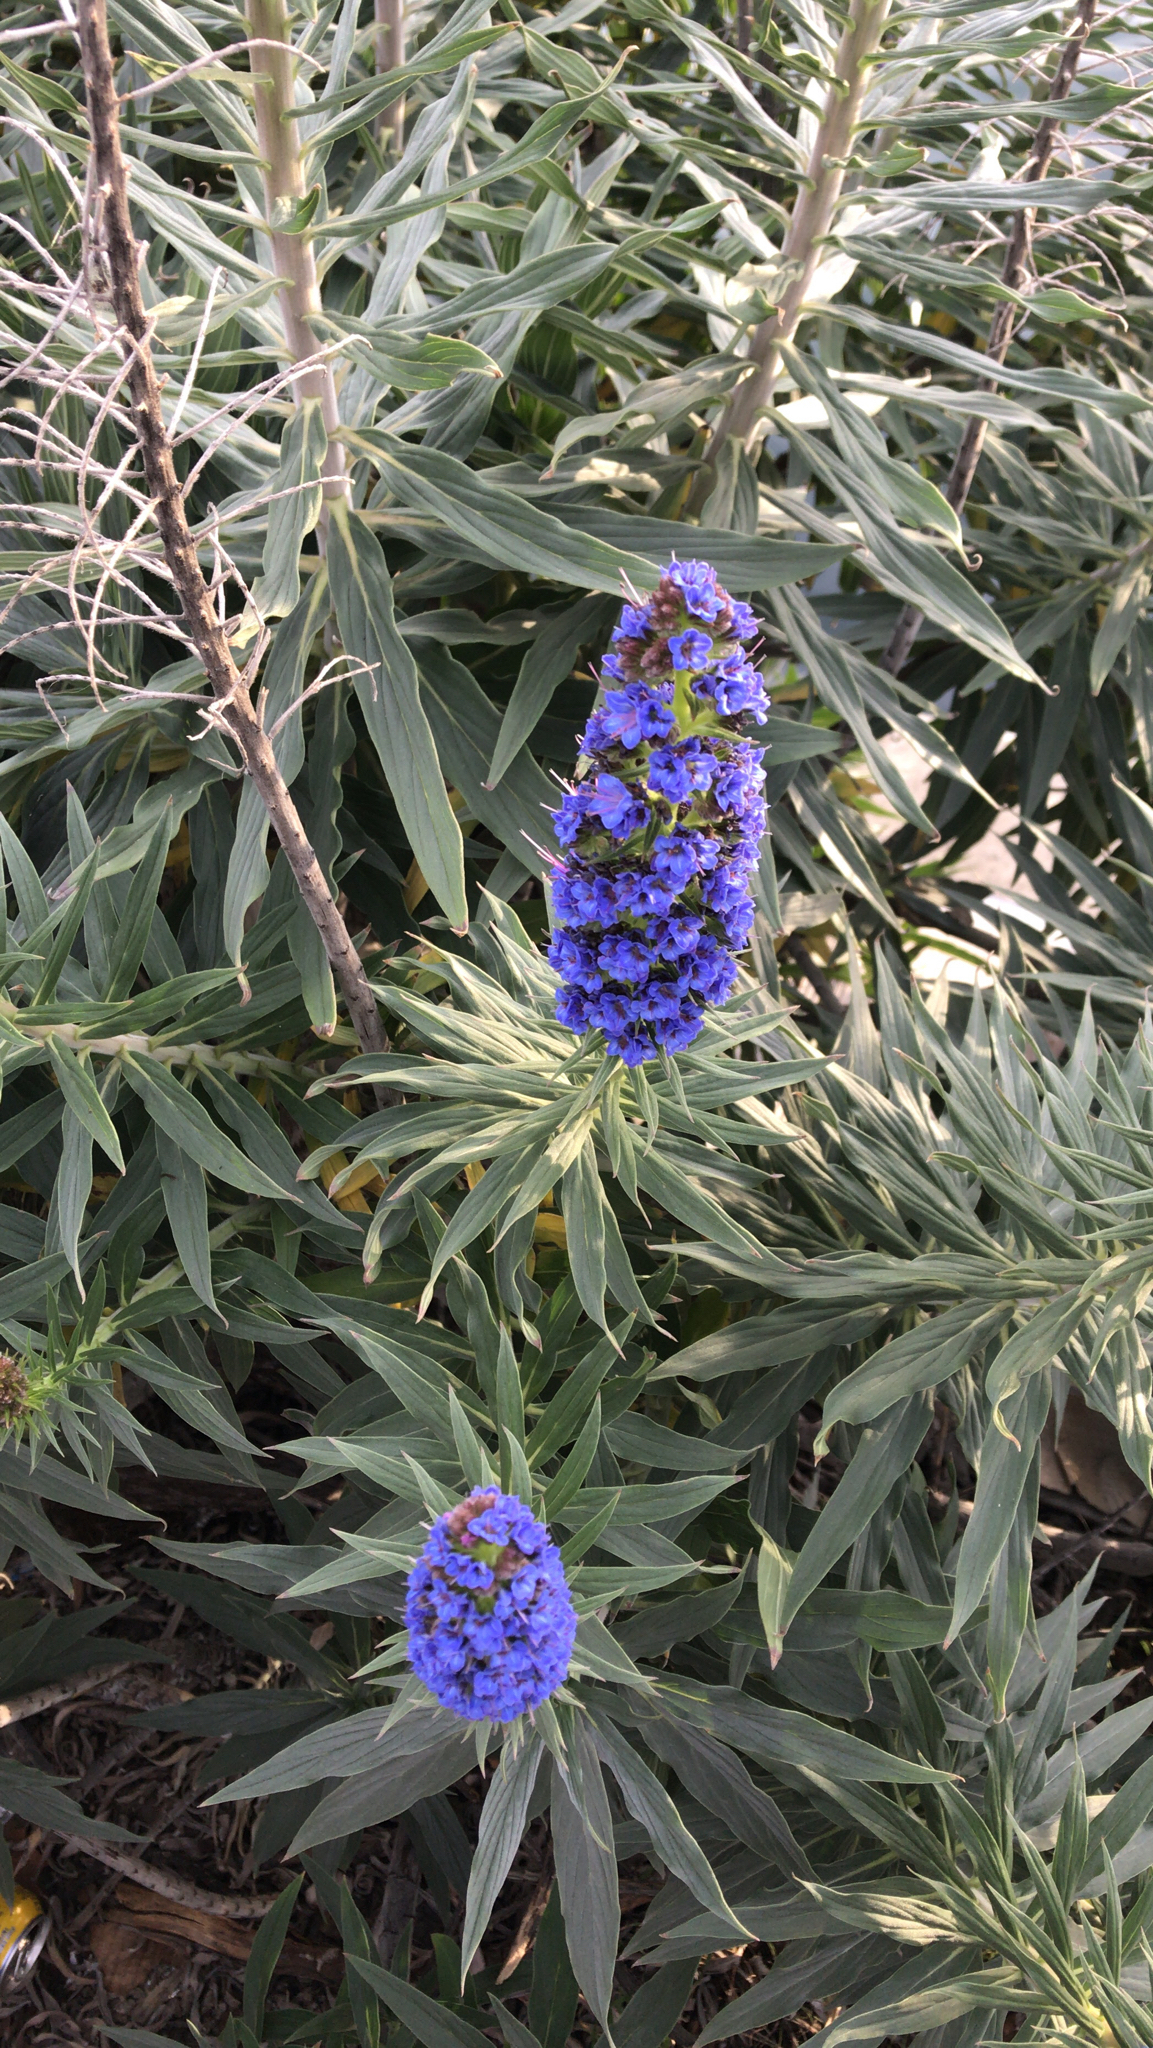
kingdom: Plantae
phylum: Tracheophyta
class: Magnoliopsida
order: Boraginales
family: Boraginaceae
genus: Echium
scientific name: Echium candicans
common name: Pride of madeira
